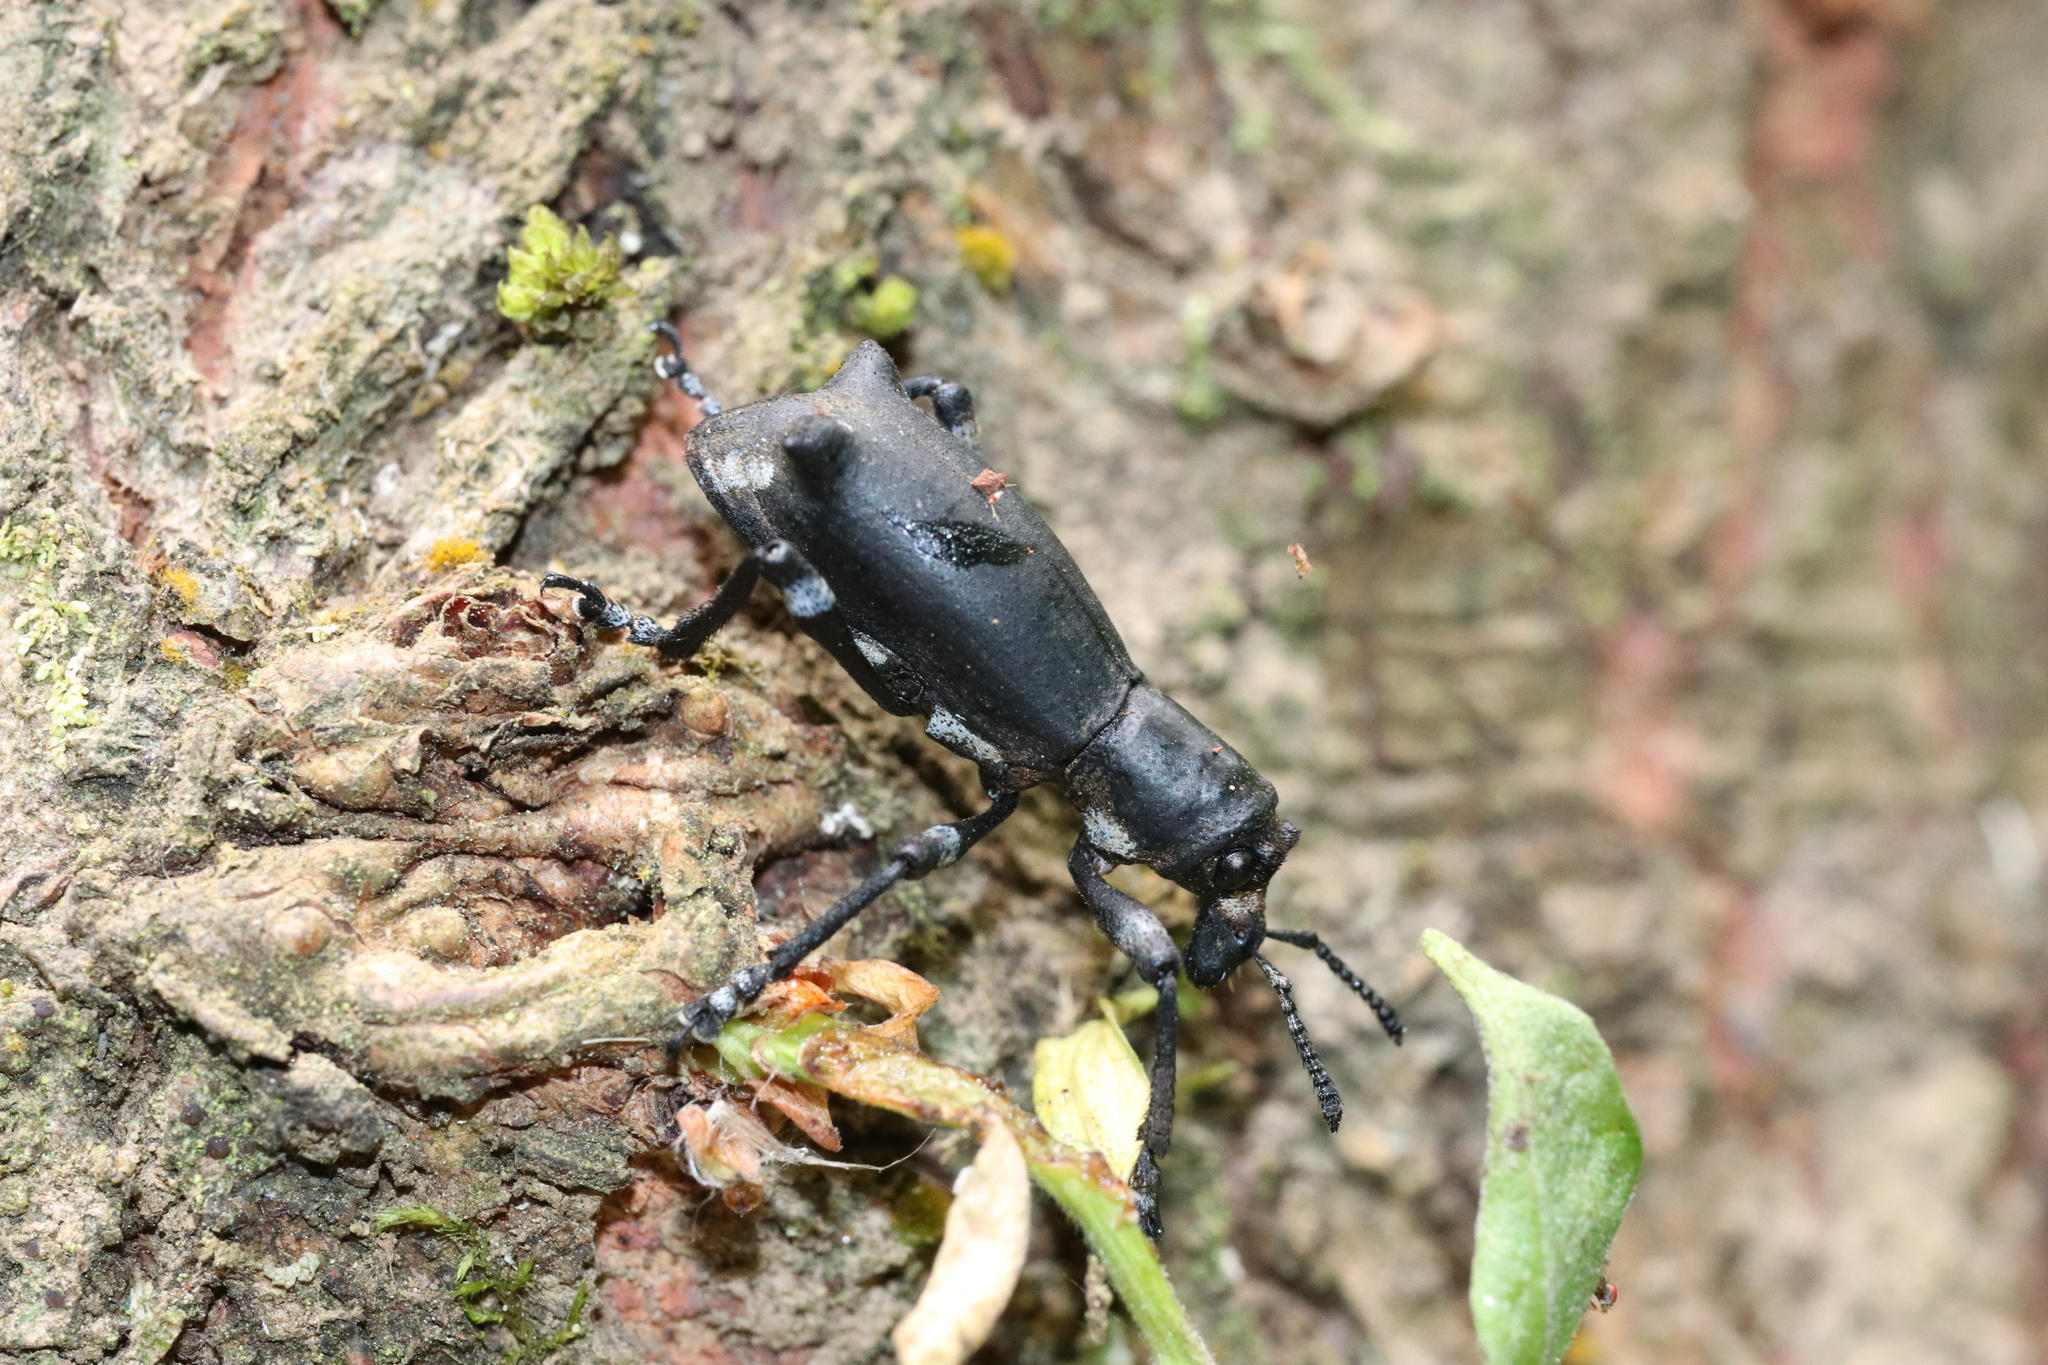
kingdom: Animalia
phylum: Arthropoda
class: Insecta
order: Coleoptera
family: Curculionidae
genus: Aegorhinus
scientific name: Aegorhinus
